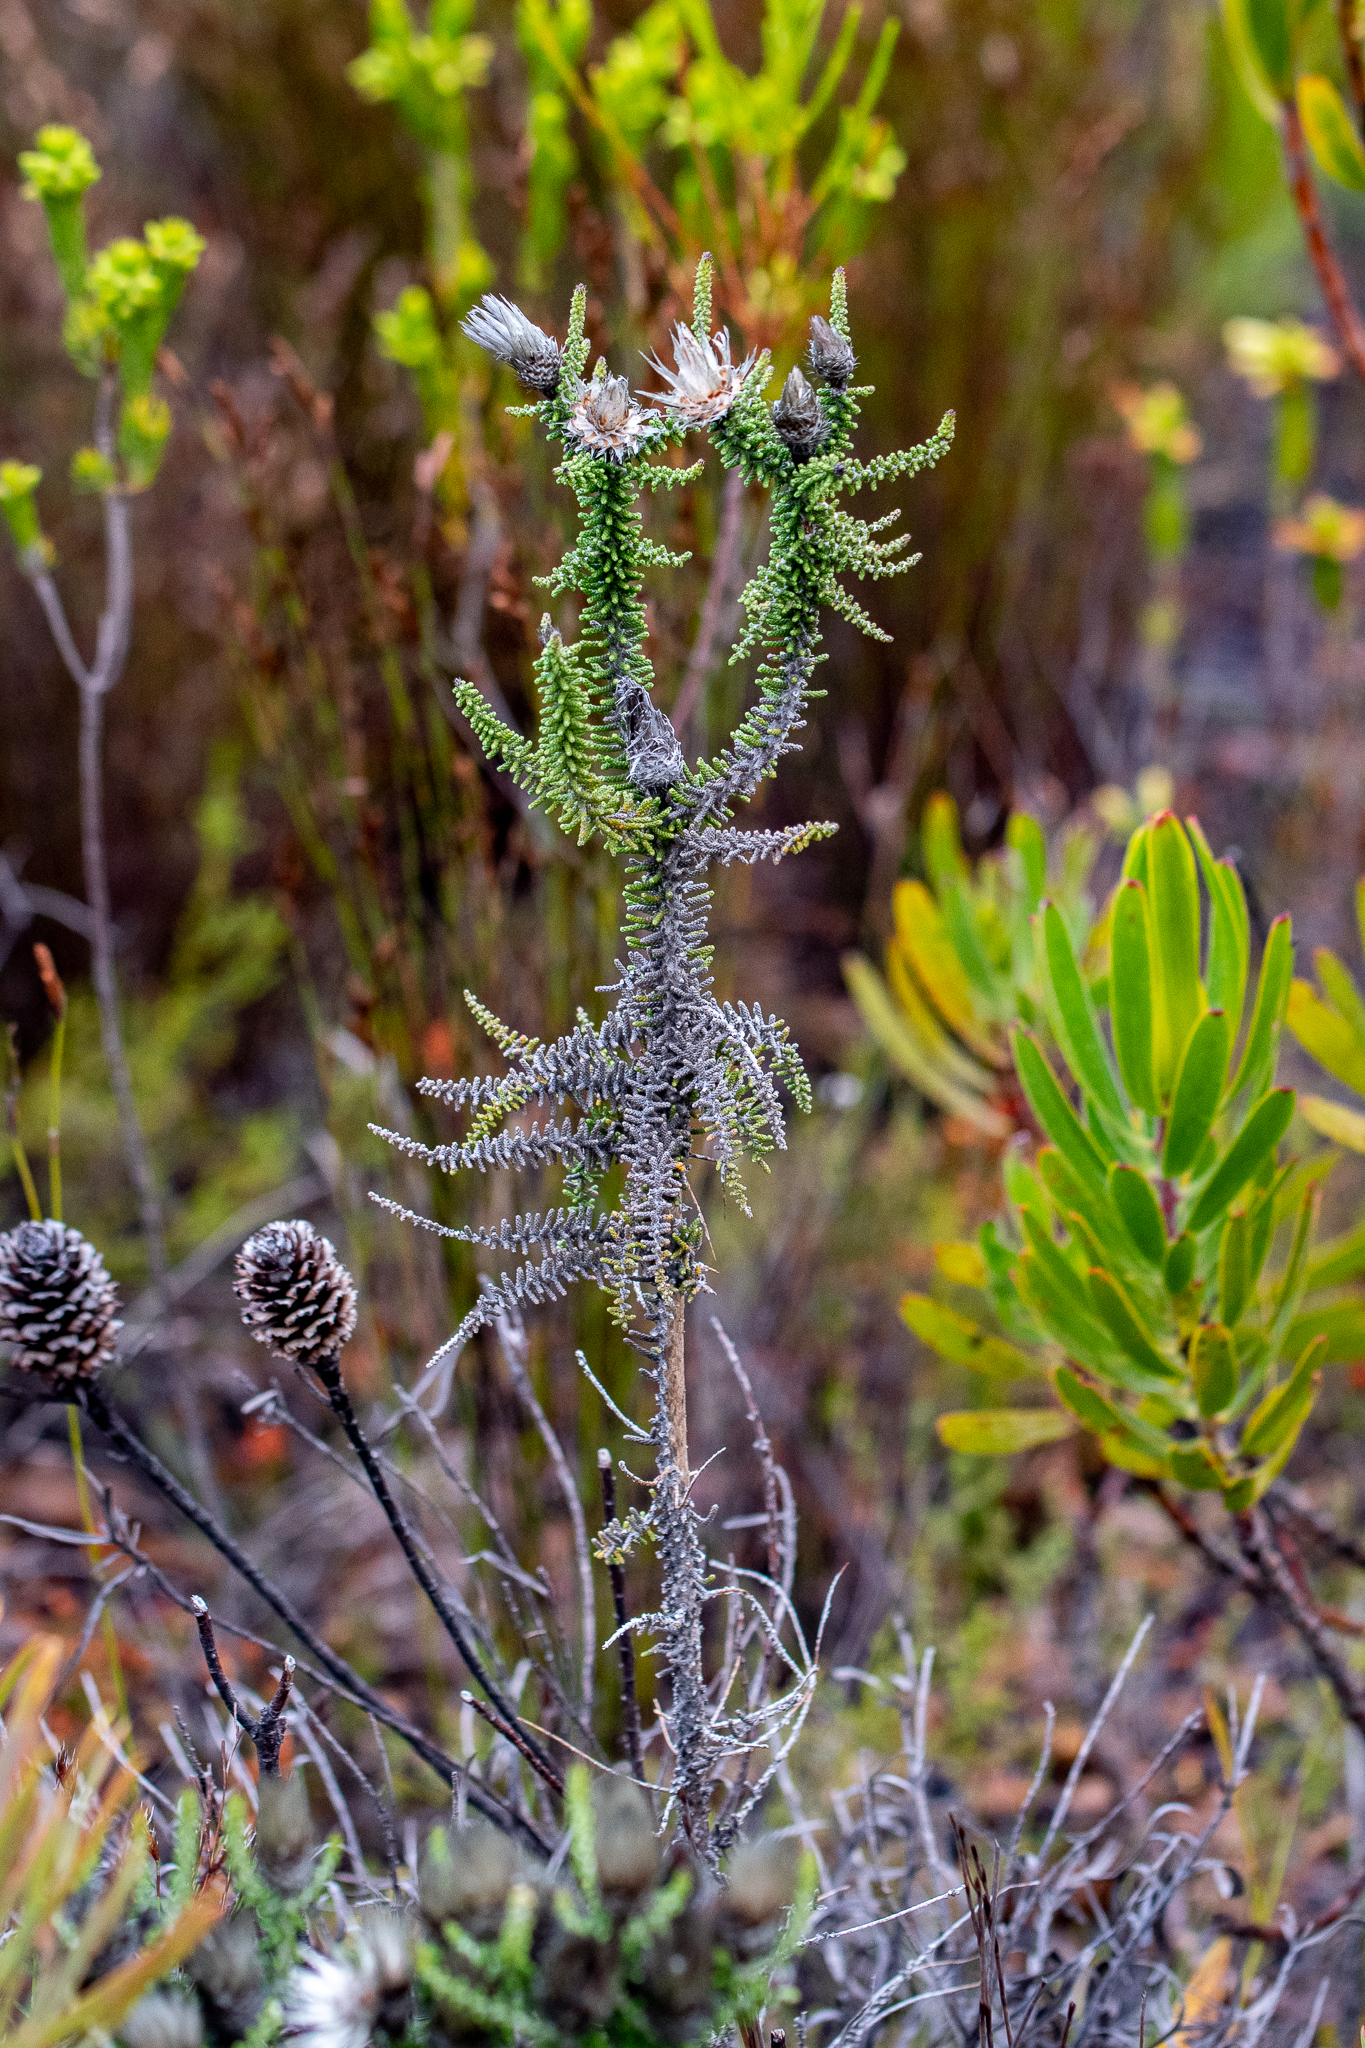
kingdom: Plantae
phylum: Tracheophyta
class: Magnoliopsida
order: Asterales
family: Asteraceae
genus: Phaenocoma
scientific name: Phaenocoma prolifera
